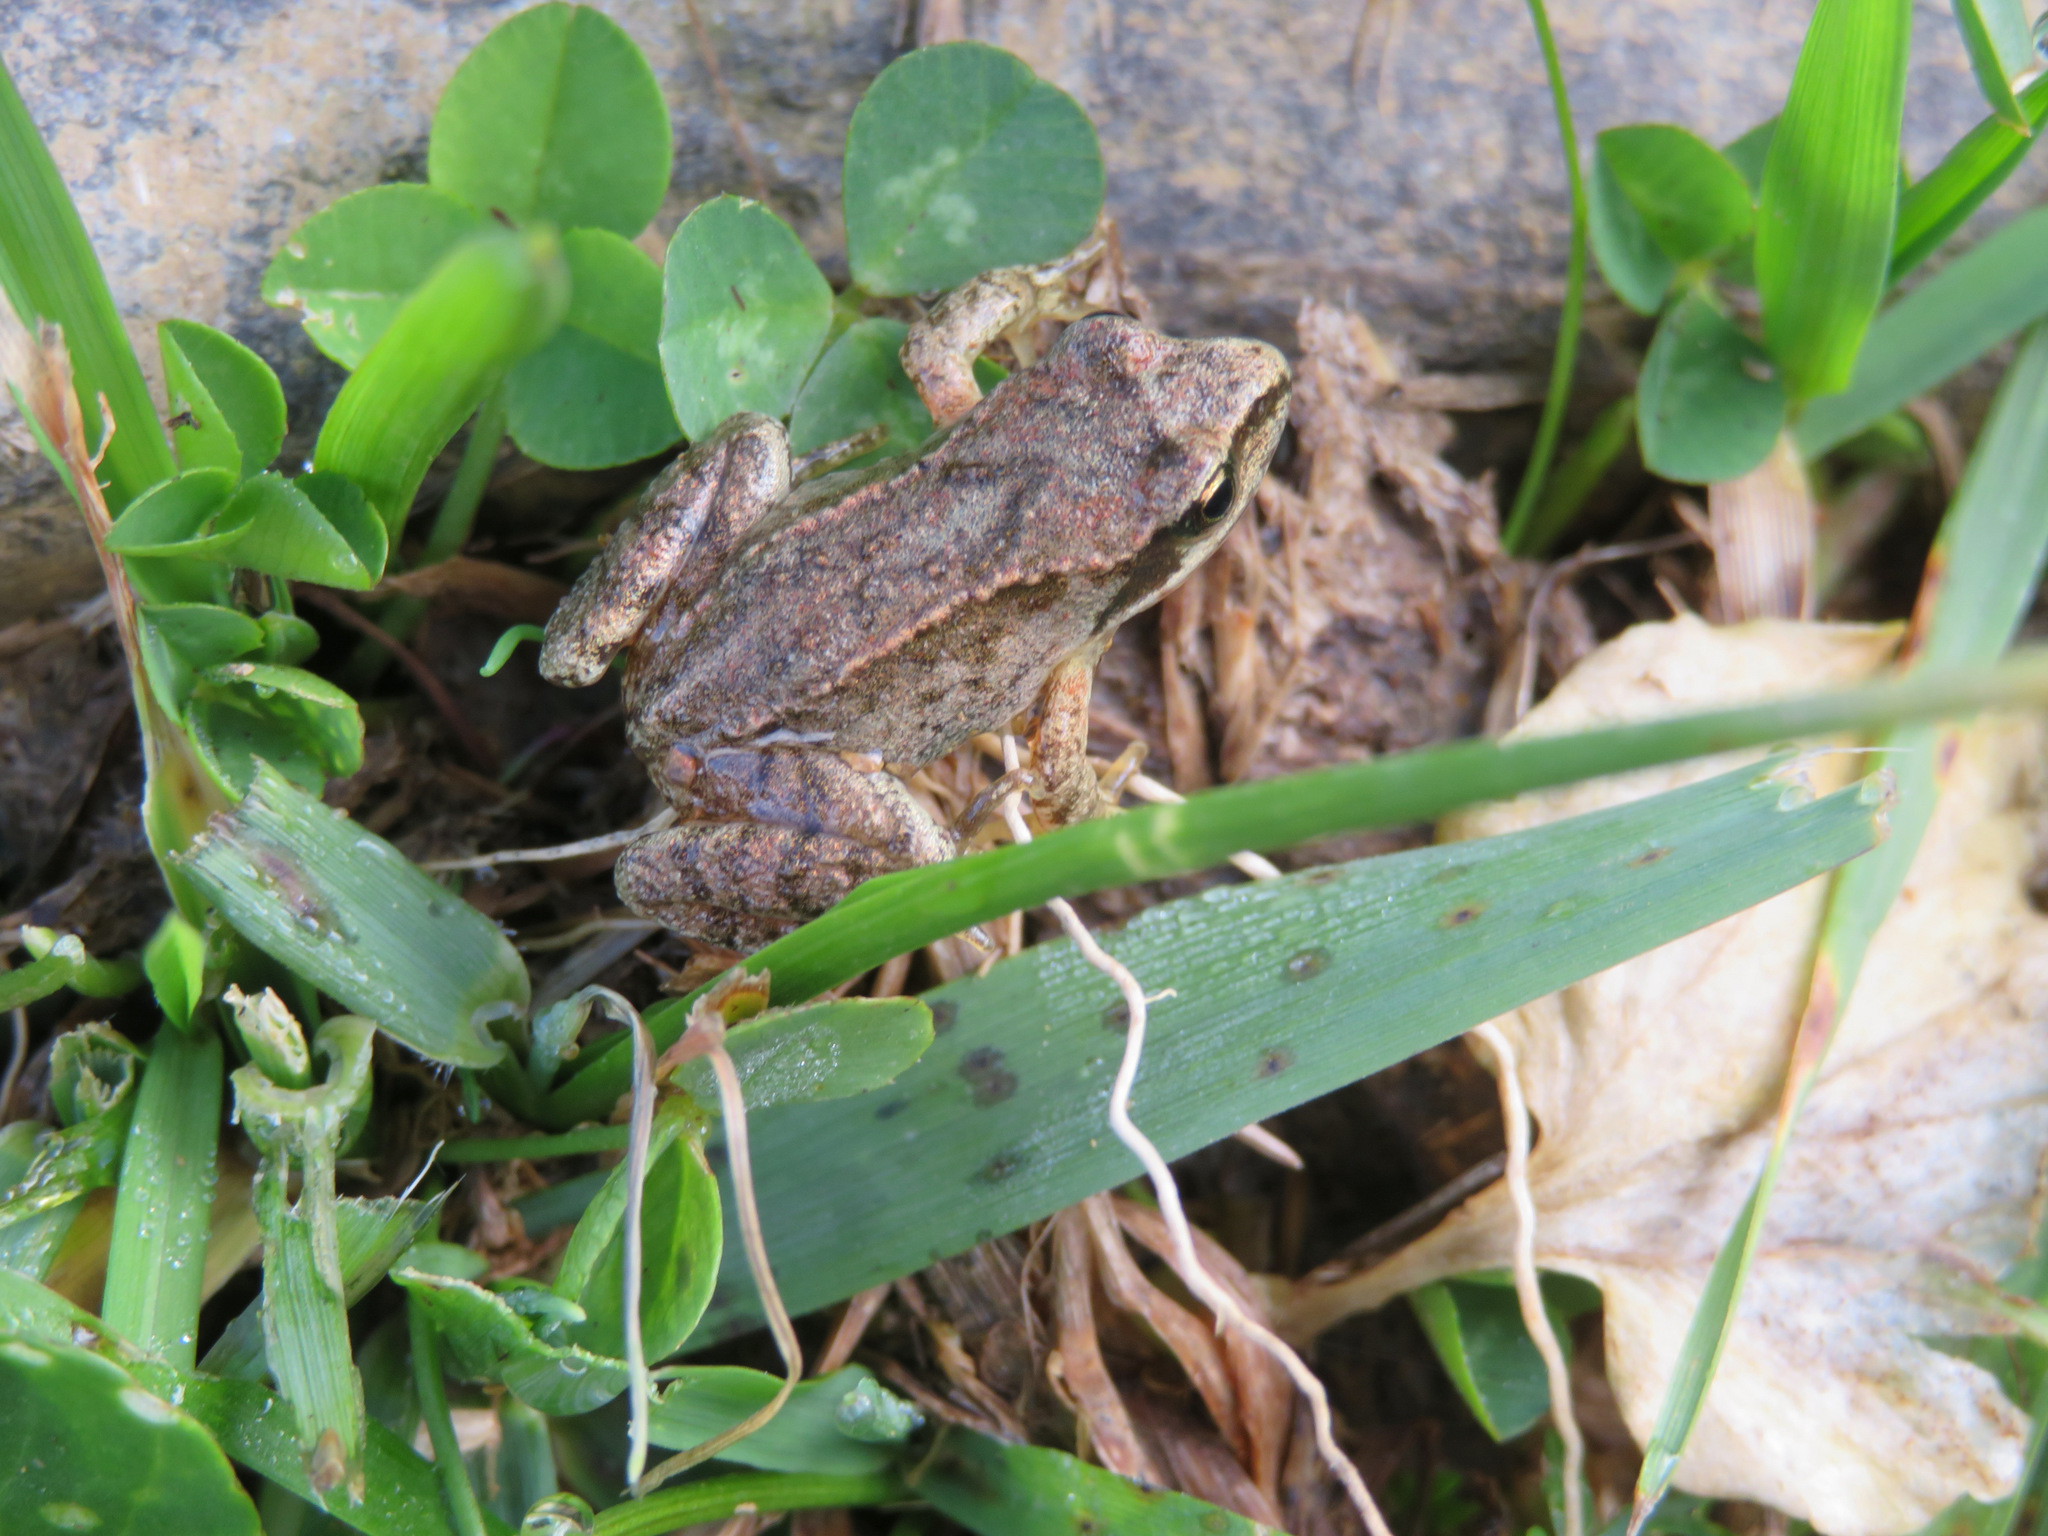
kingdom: Animalia
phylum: Chordata
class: Amphibia
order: Anura
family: Ranidae
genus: Rana
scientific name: Rana temporaria
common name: Common frog
